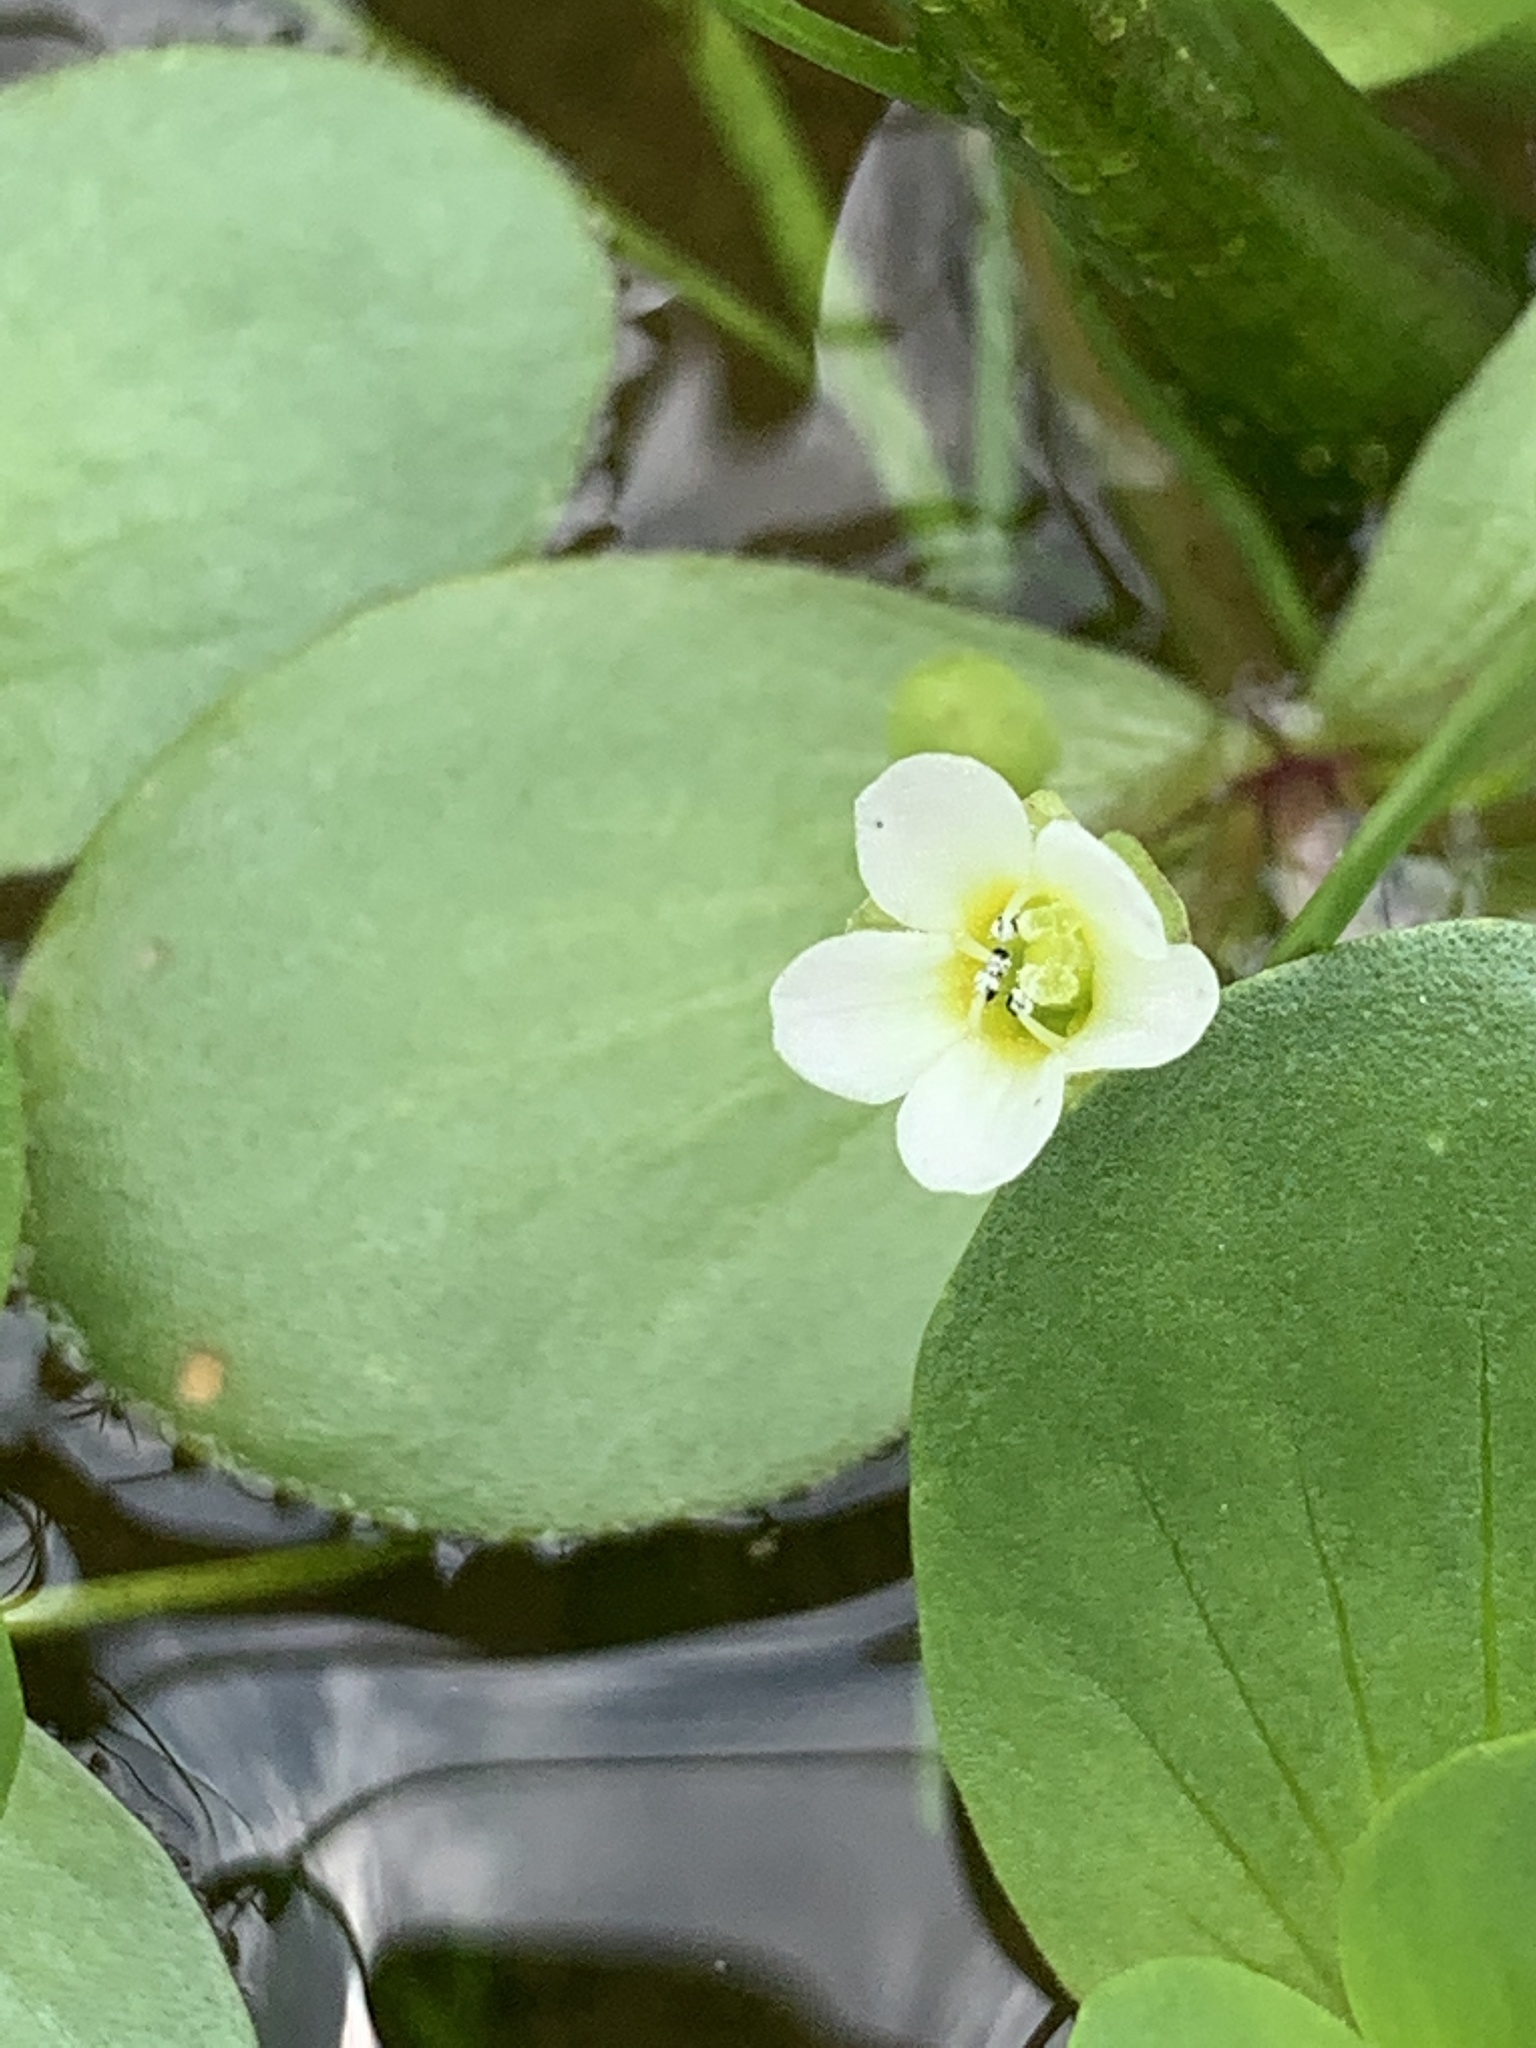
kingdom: Plantae
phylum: Tracheophyta
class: Magnoliopsida
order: Lamiales
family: Plantaginaceae
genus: Bacopa
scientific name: Bacopa rotundifolia
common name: Disc water hyssop
